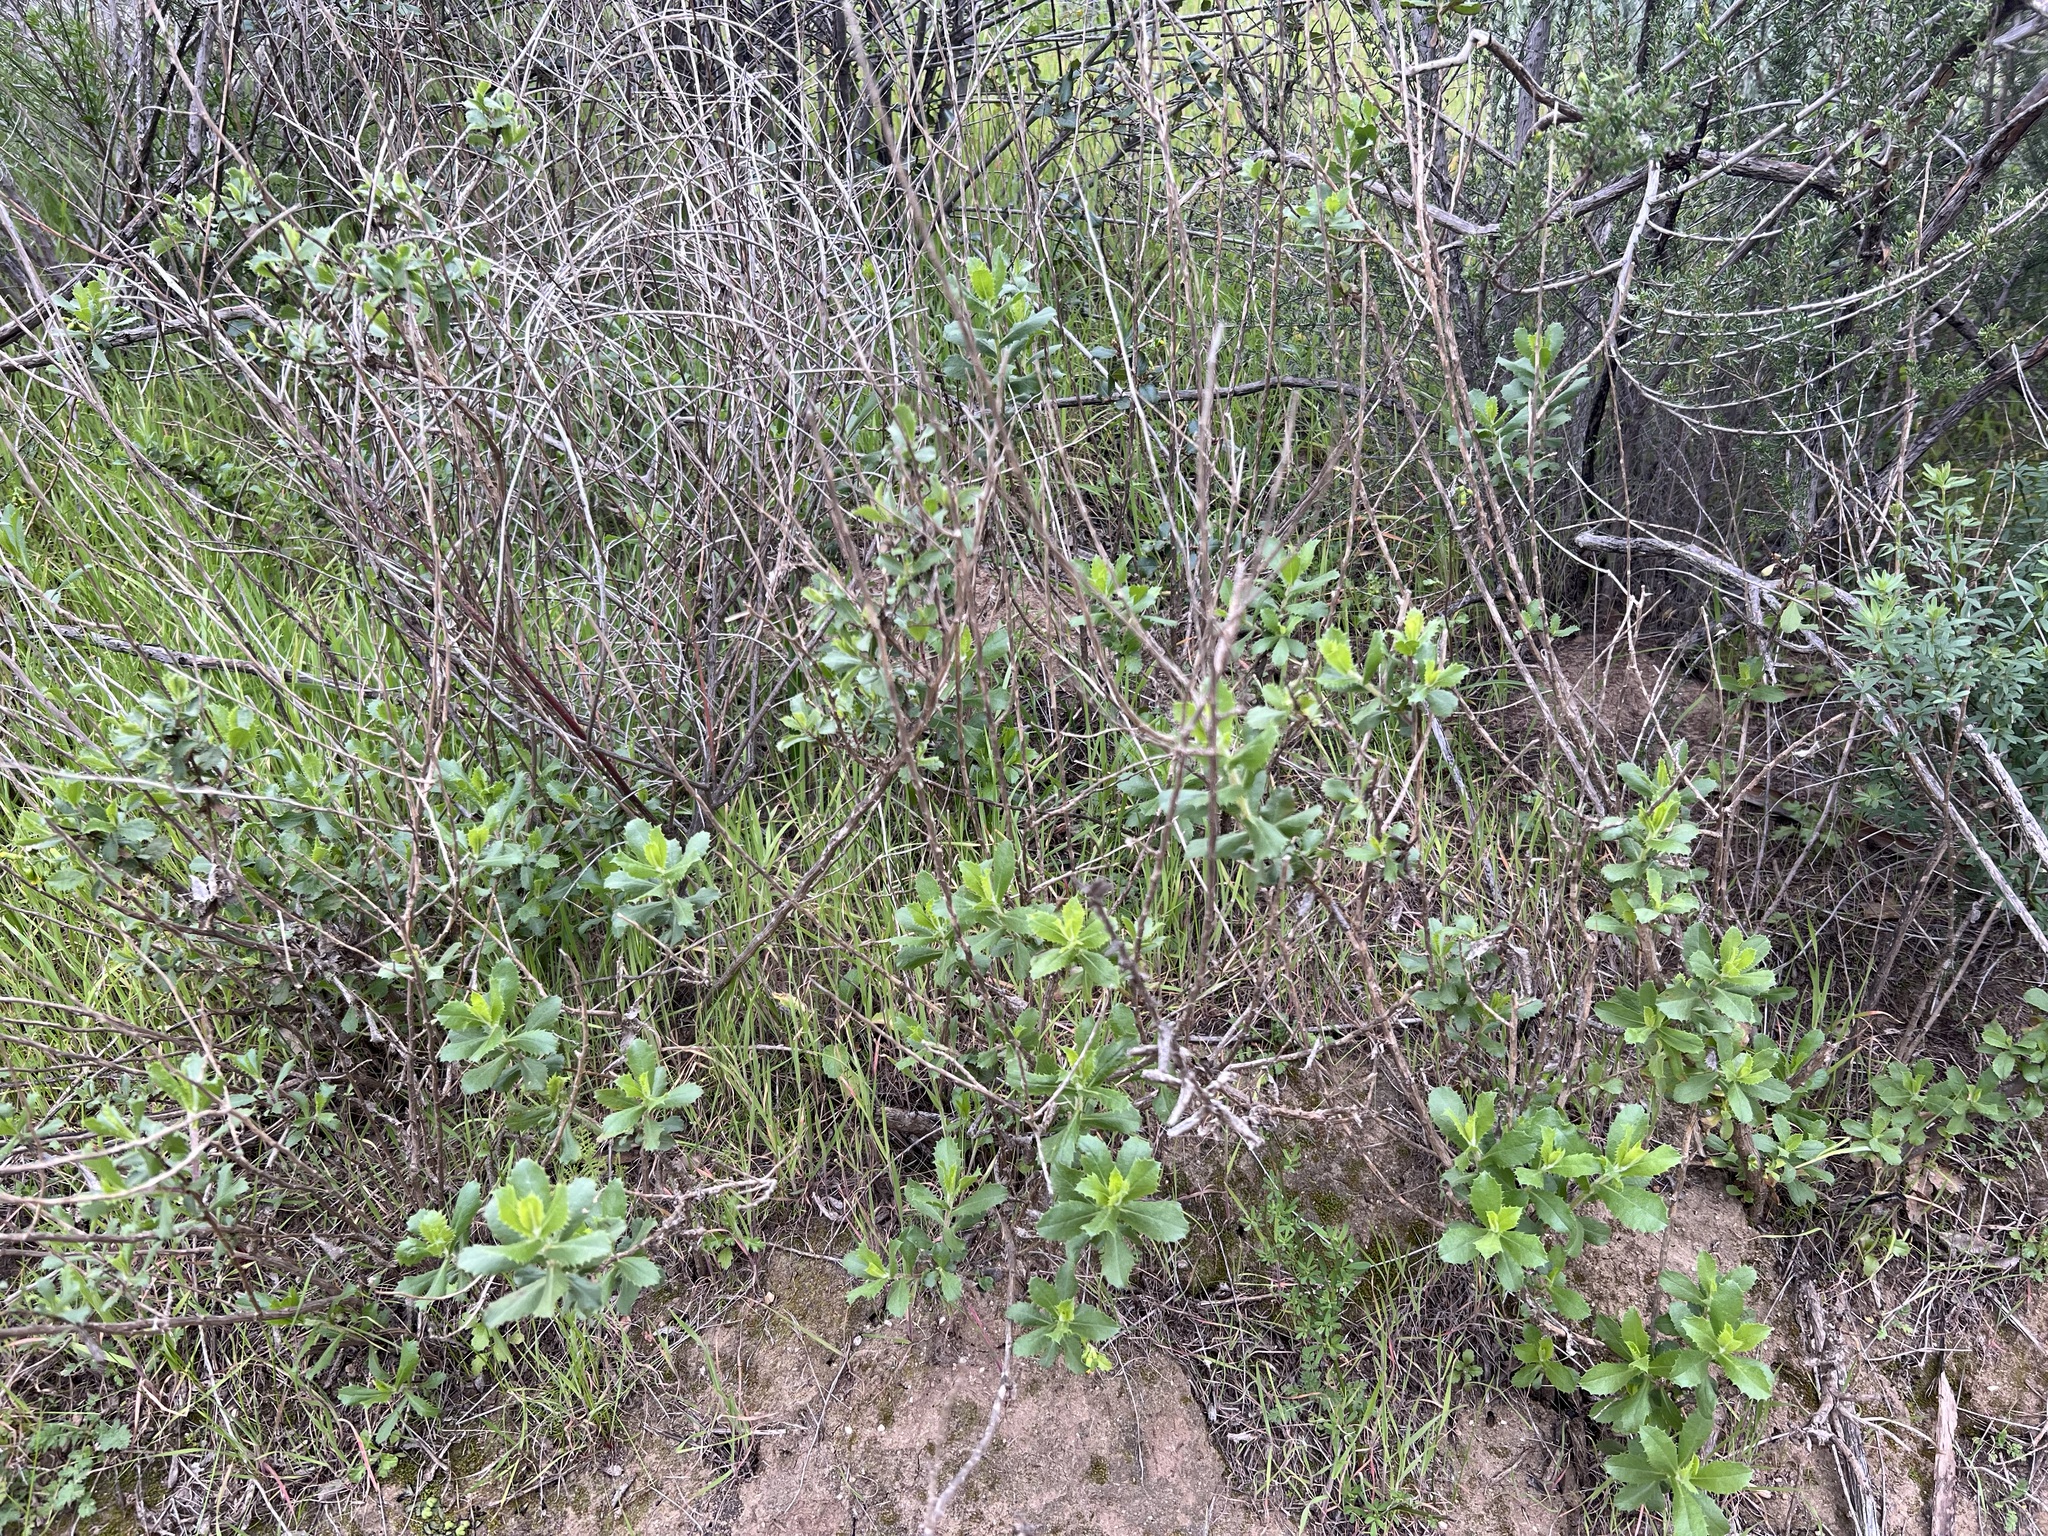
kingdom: Plantae
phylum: Tracheophyta
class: Magnoliopsida
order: Asterales
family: Asteraceae
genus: Hazardia
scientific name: Hazardia squarrosa
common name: Saw-tooth goldenbush
